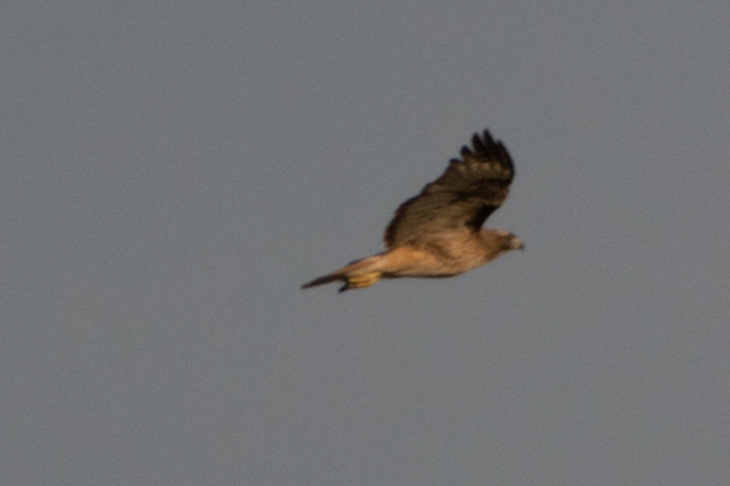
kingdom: Animalia
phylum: Chordata
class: Aves
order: Accipitriformes
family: Accipitridae
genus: Buteo
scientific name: Buteo jamaicensis
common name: Red-tailed hawk
